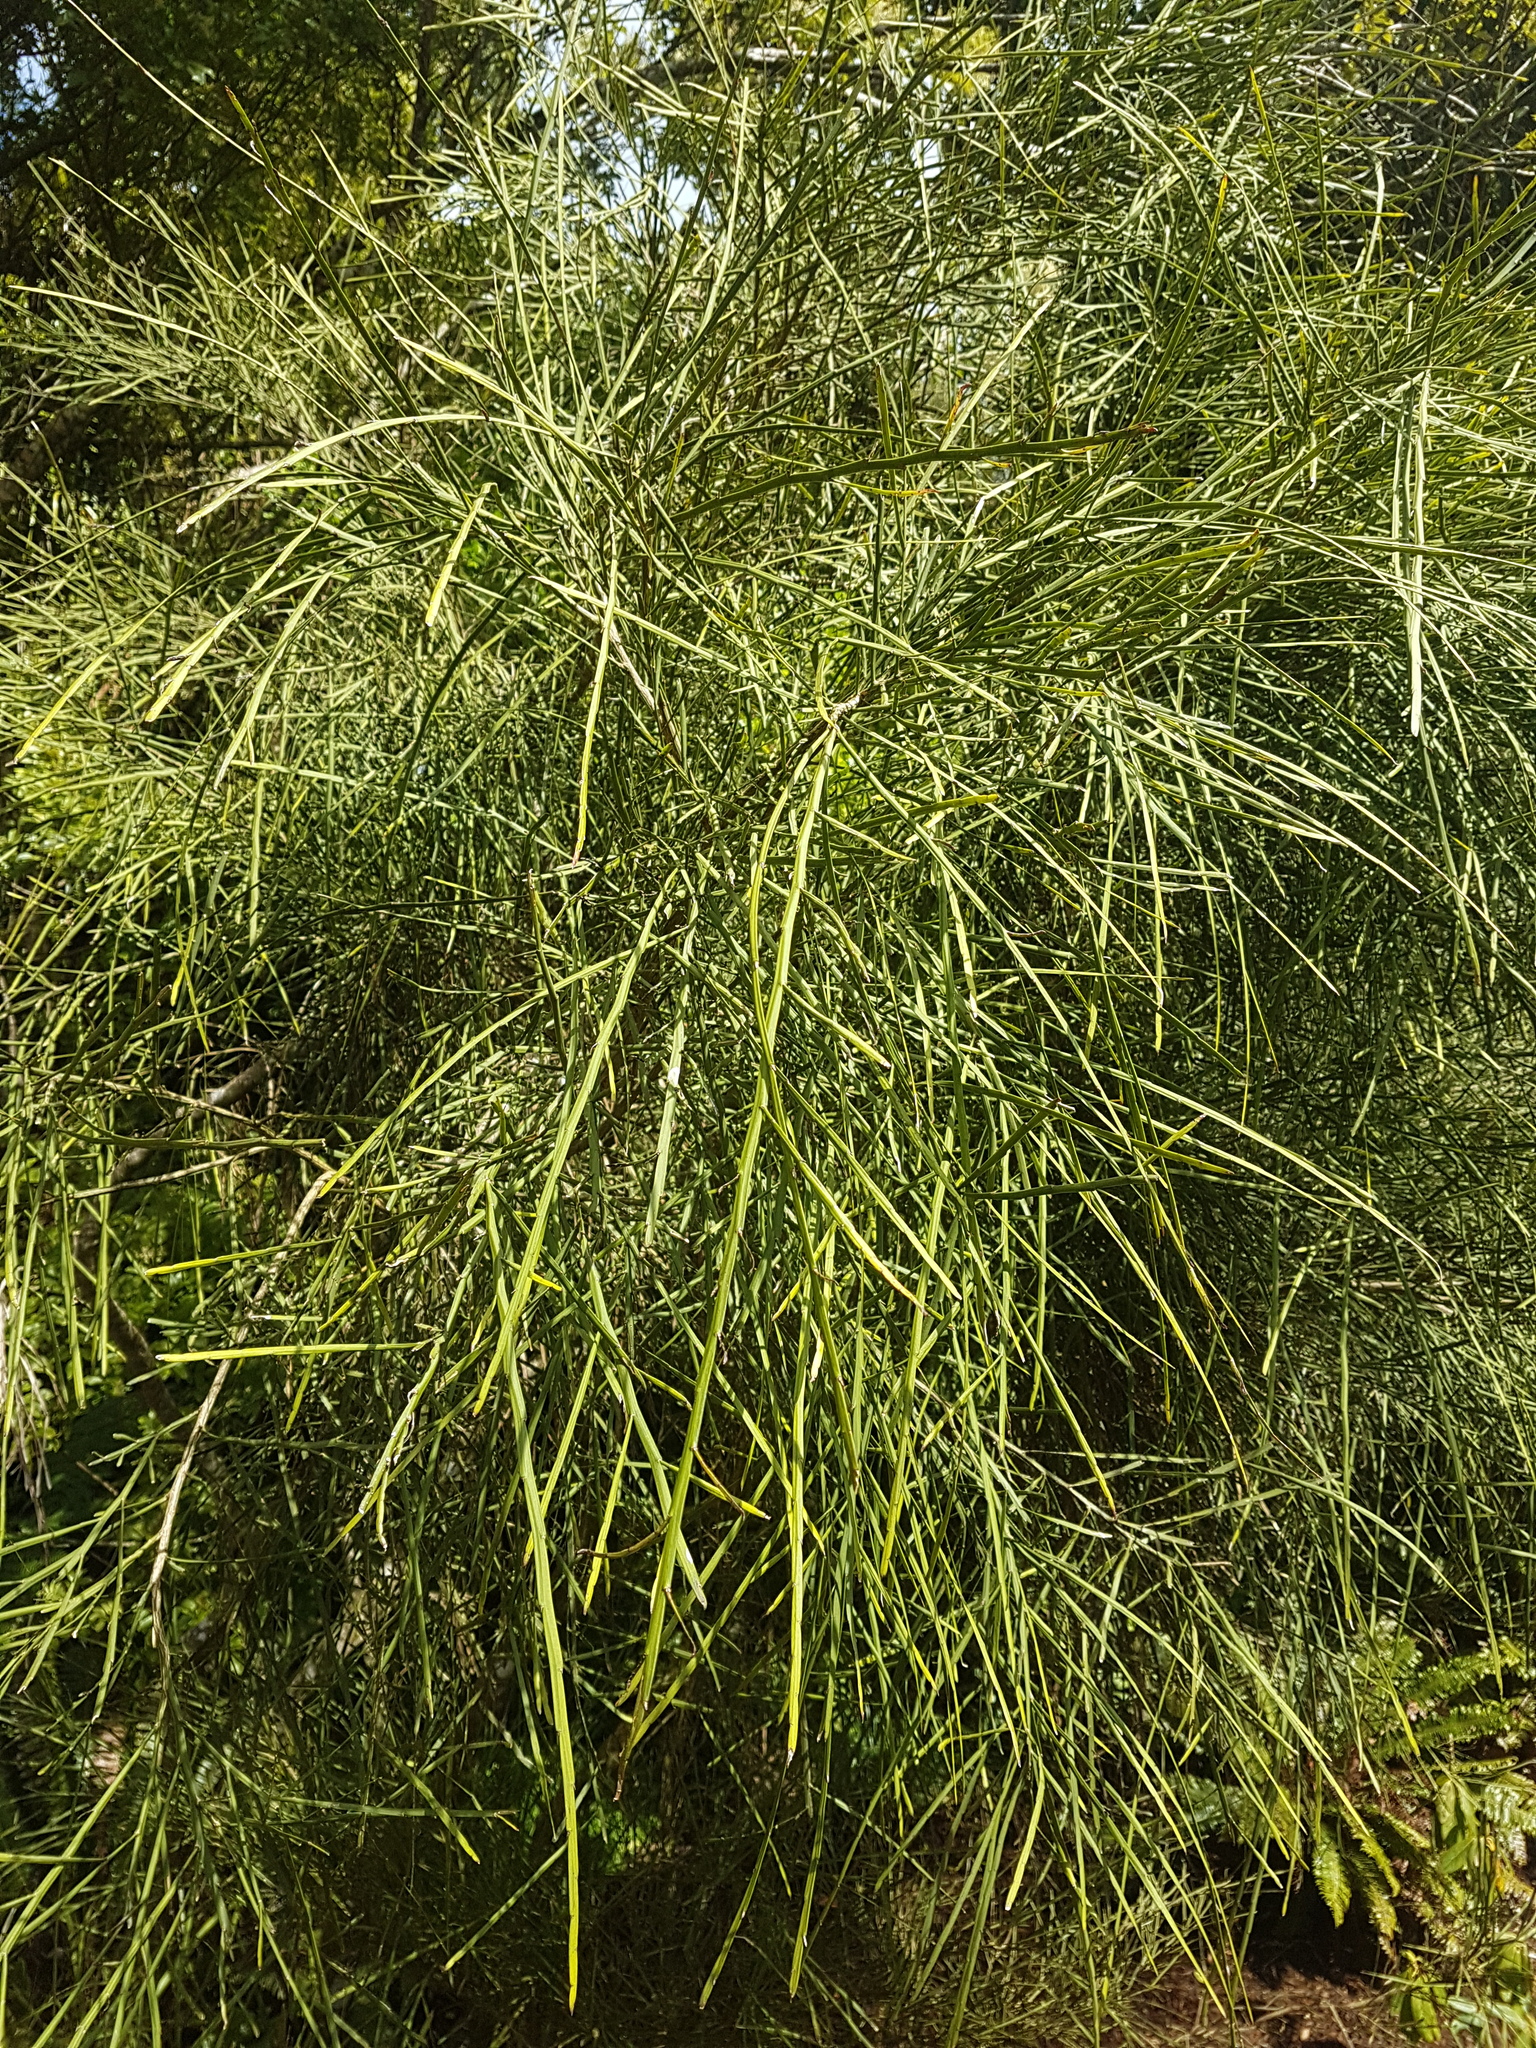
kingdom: Plantae
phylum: Tracheophyta
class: Magnoliopsida
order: Fabales
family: Fabaceae
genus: Carmichaelia
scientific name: Carmichaelia australis
